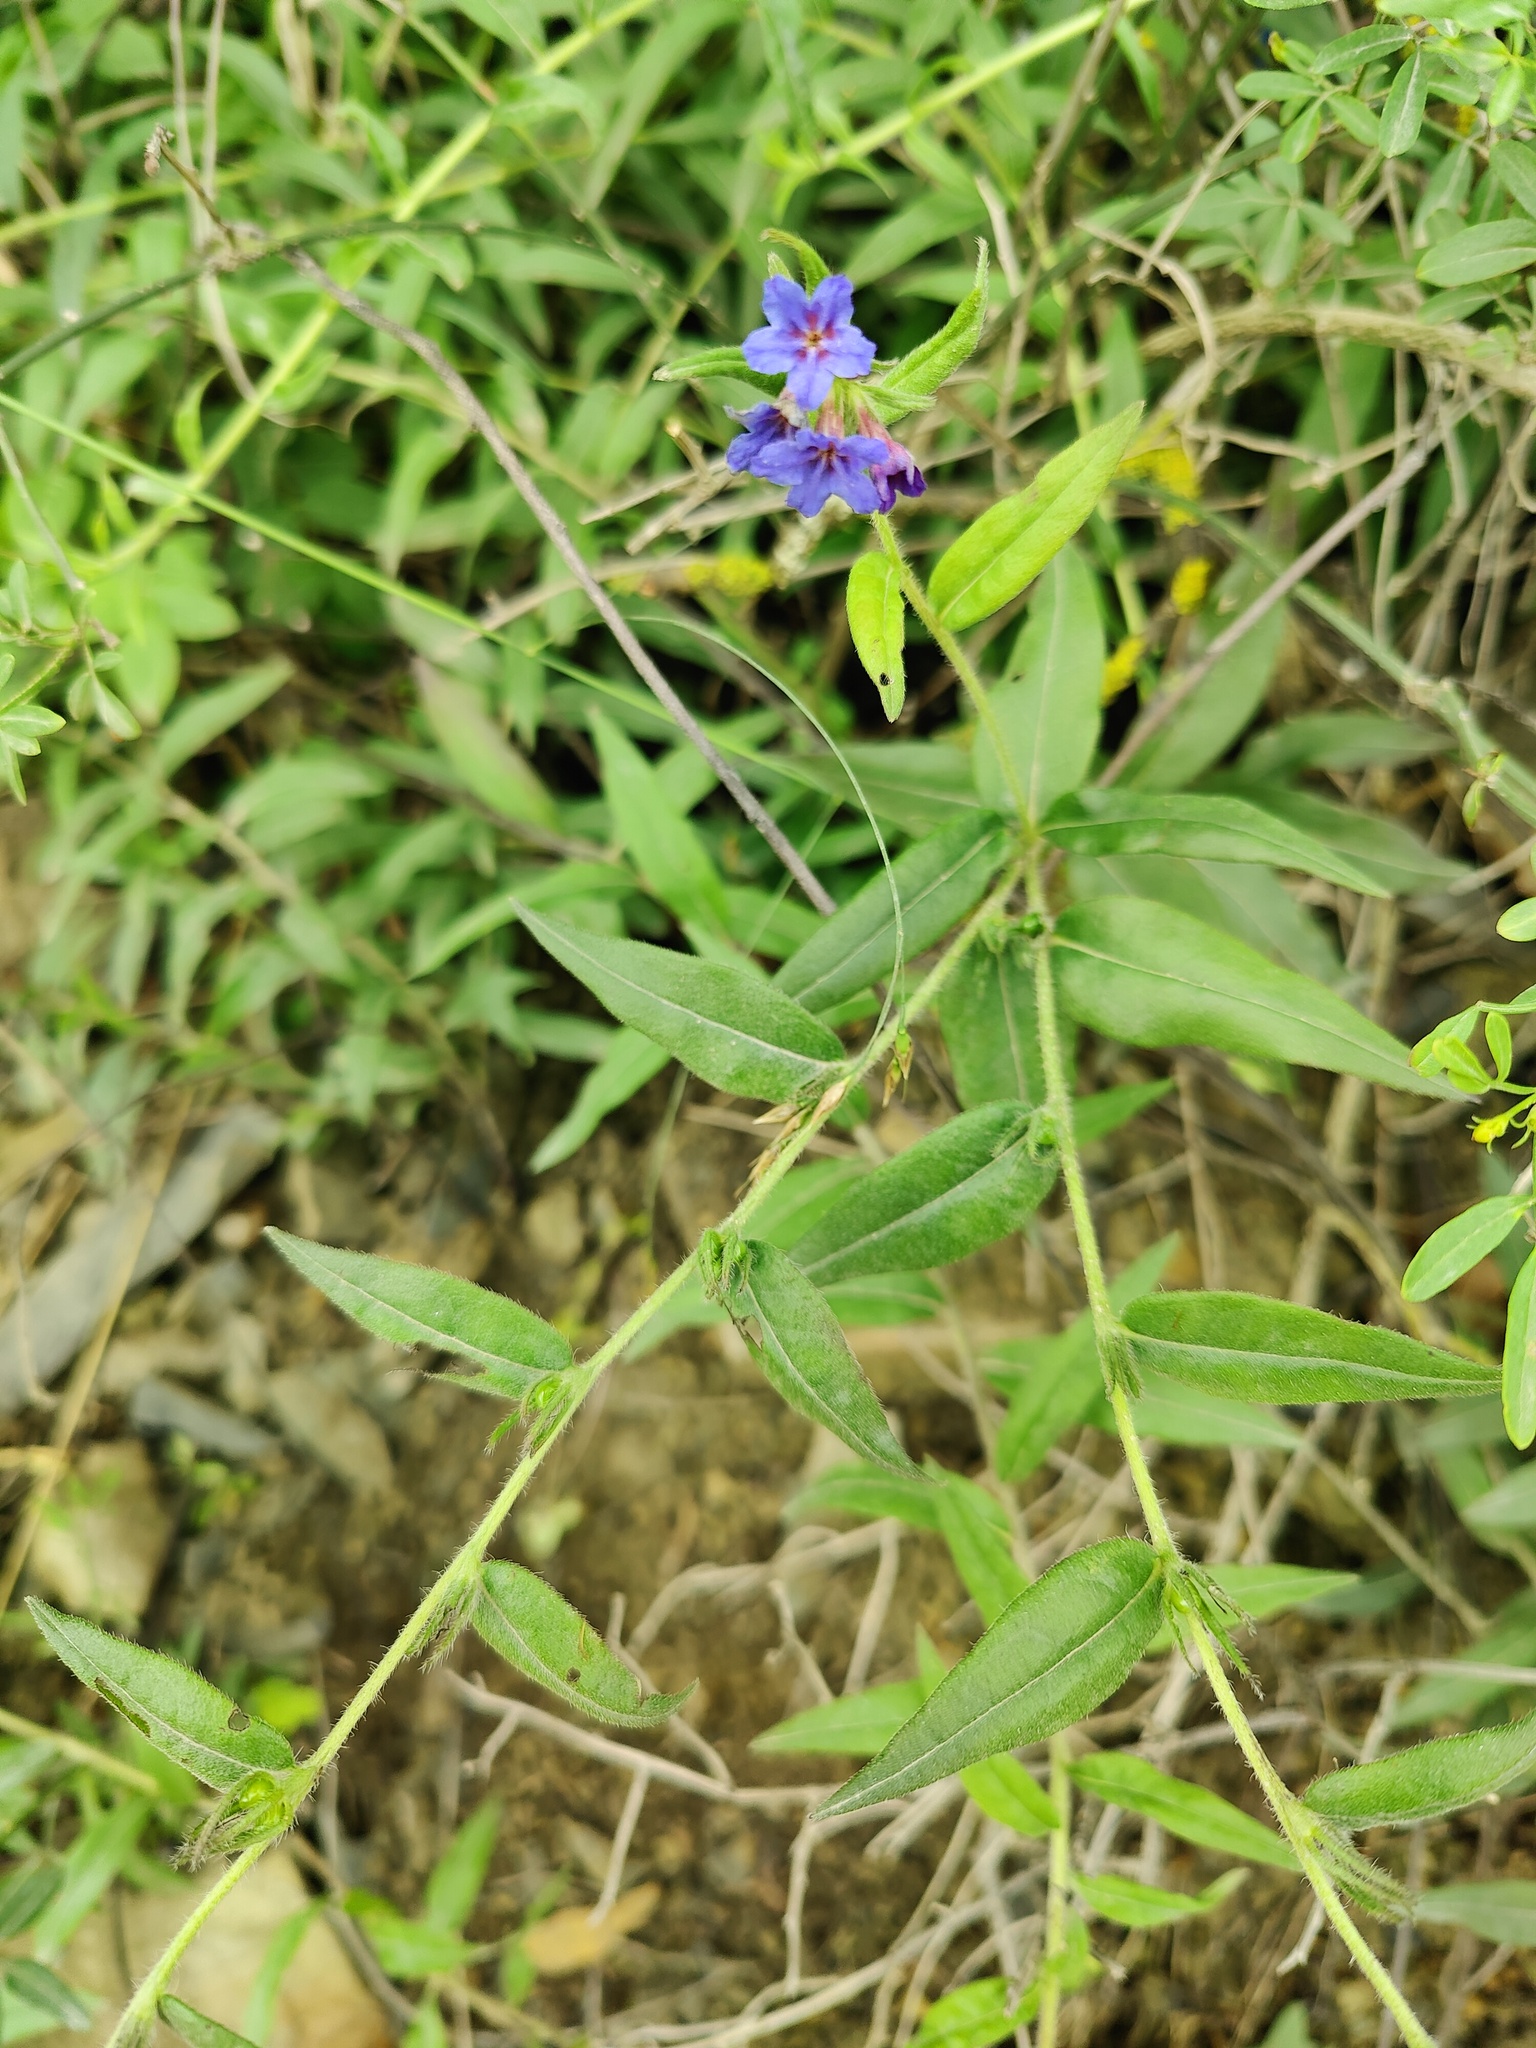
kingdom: Plantae
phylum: Tracheophyta
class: Magnoliopsida
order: Boraginales
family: Boraginaceae
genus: Aegonychon
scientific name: Aegonychon purpurocaeruleum
